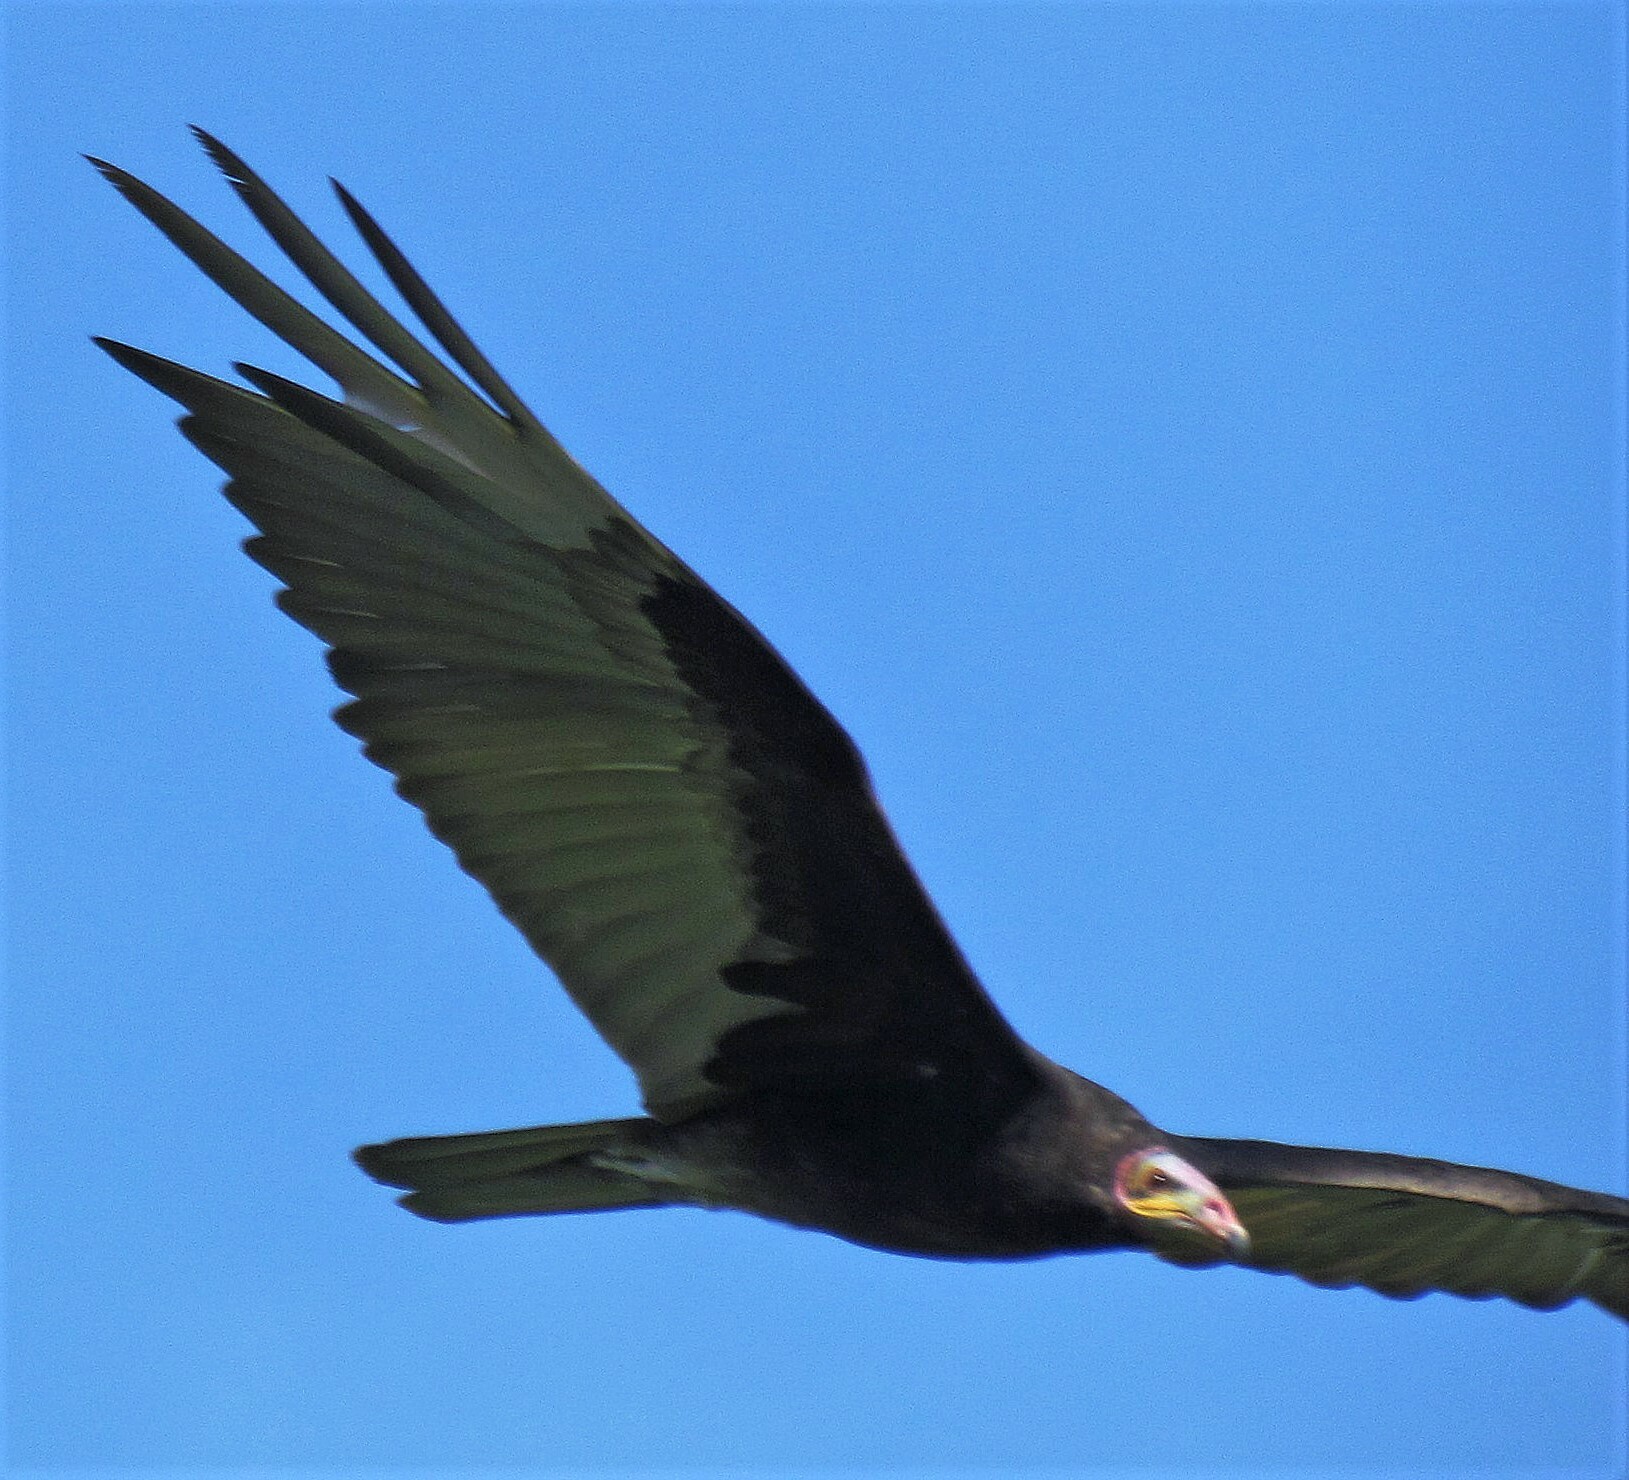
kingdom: Animalia
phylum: Chordata
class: Aves
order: Accipitriformes
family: Cathartidae
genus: Cathartes
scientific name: Cathartes burrovianus
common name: Lesser yellow-headed vulture
